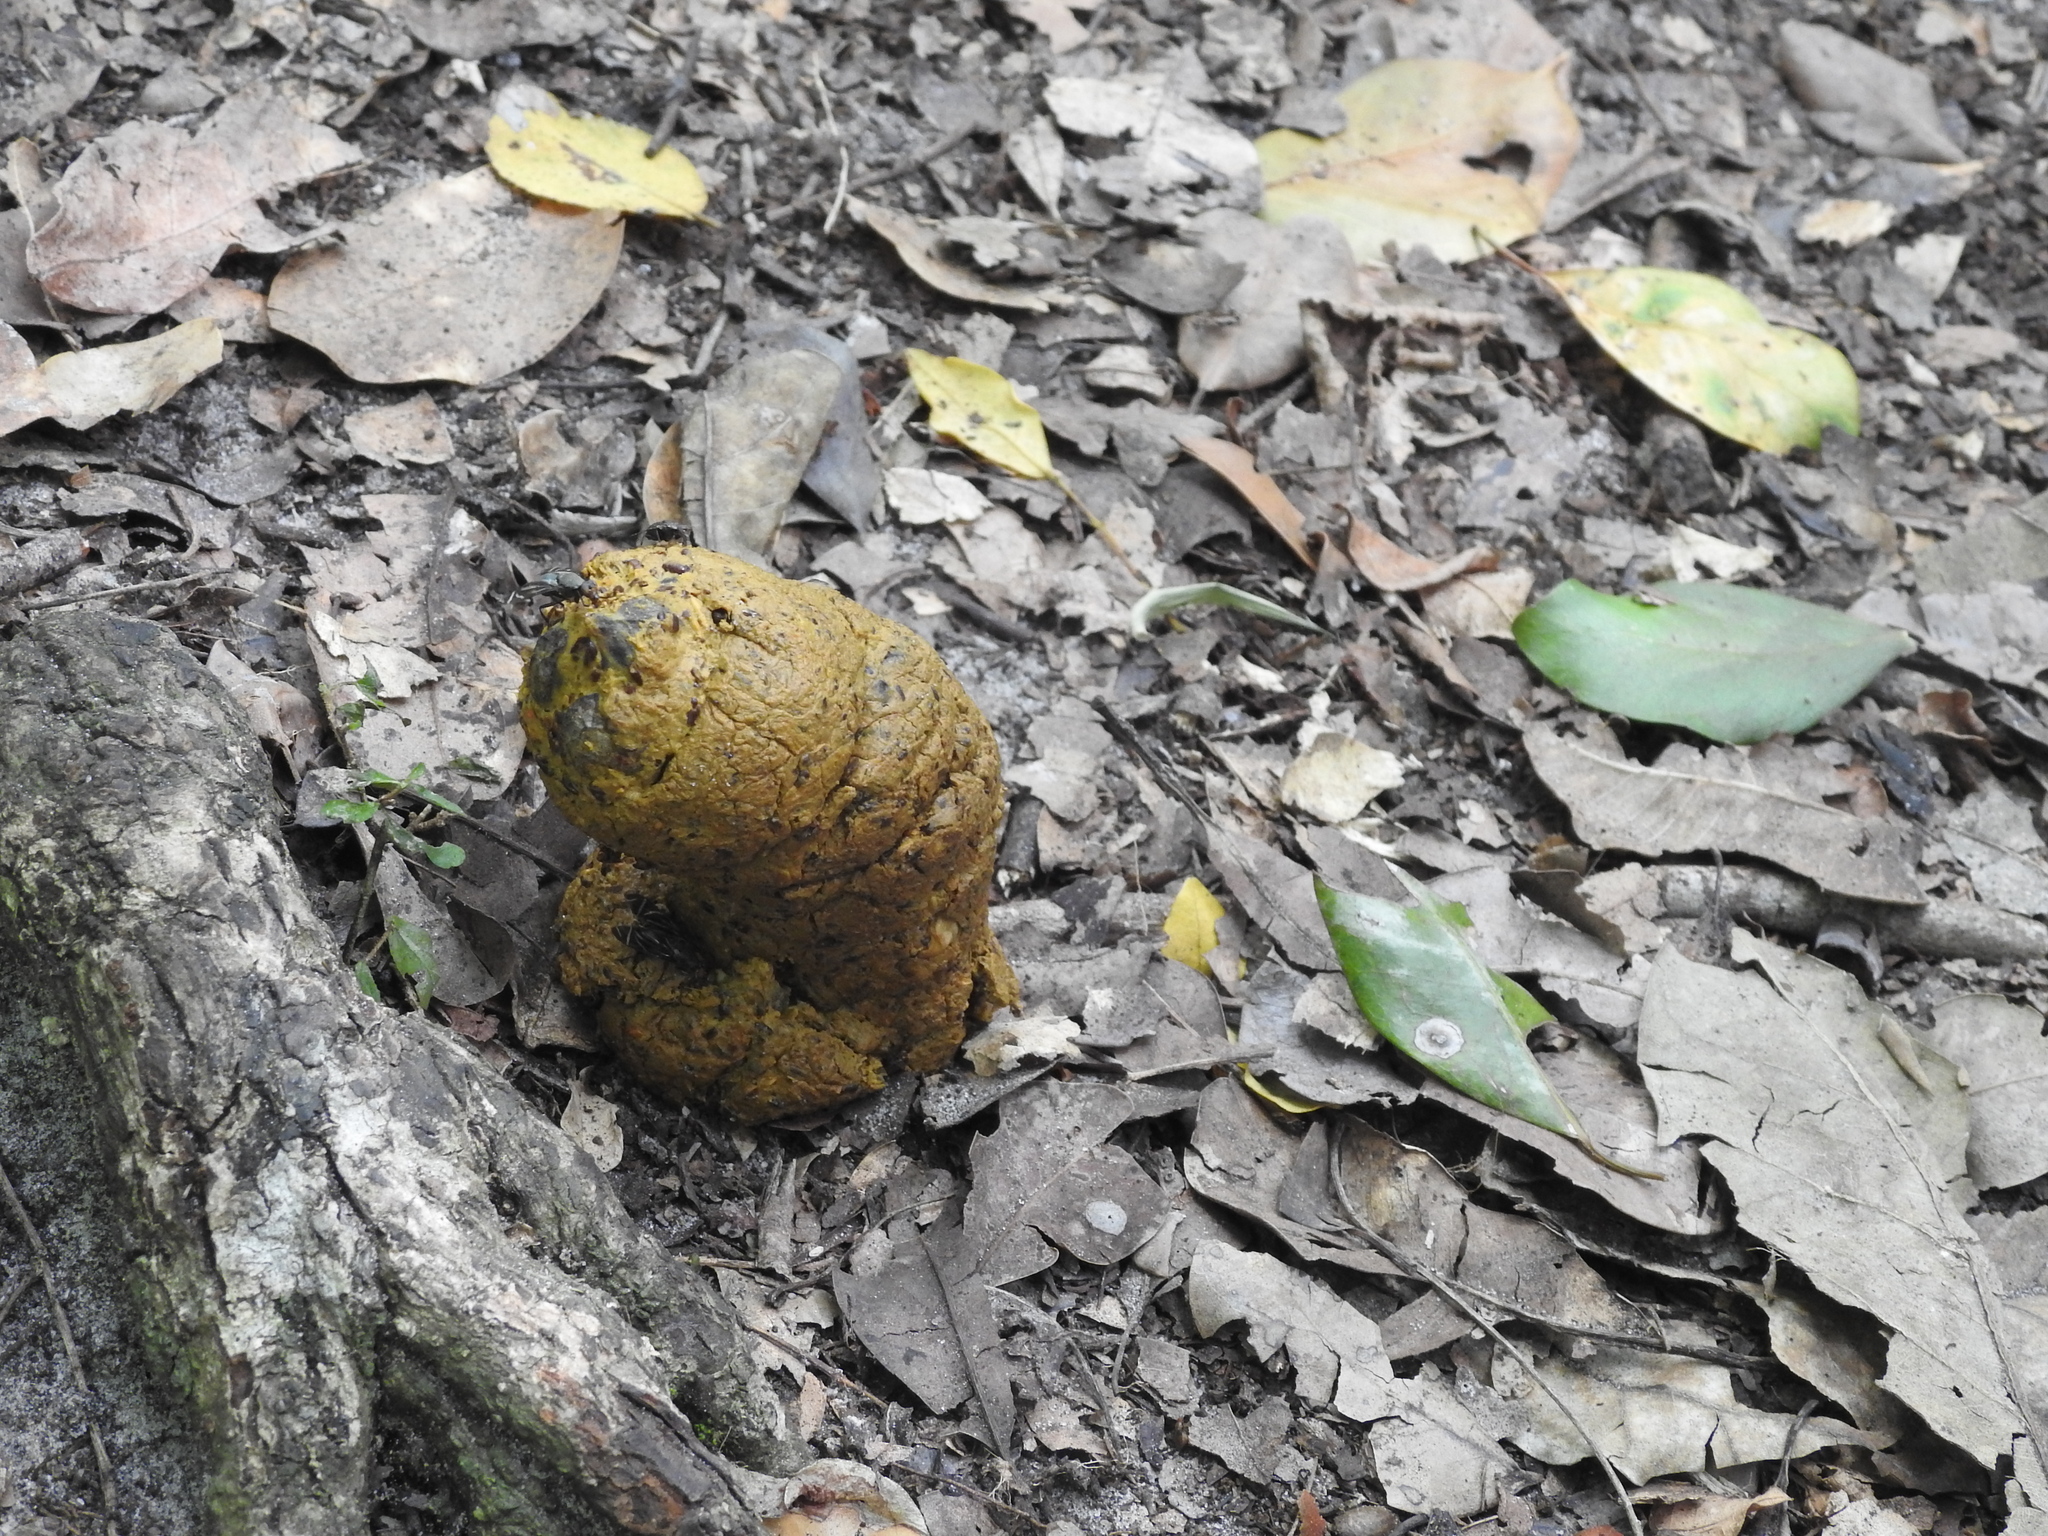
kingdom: Animalia
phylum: Chordata
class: Mammalia
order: Primates
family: Cercopithecidae
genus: Papio
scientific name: Papio cynocephalus
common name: Yellow baboon
